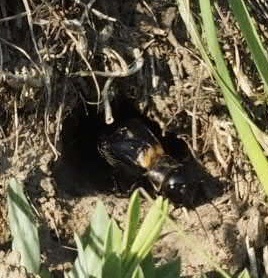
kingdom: Animalia
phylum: Arthropoda
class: Insecta
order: Orthoptera
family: Gryllidae
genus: Gryllus
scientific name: Gryllus campestris
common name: Field cricket
